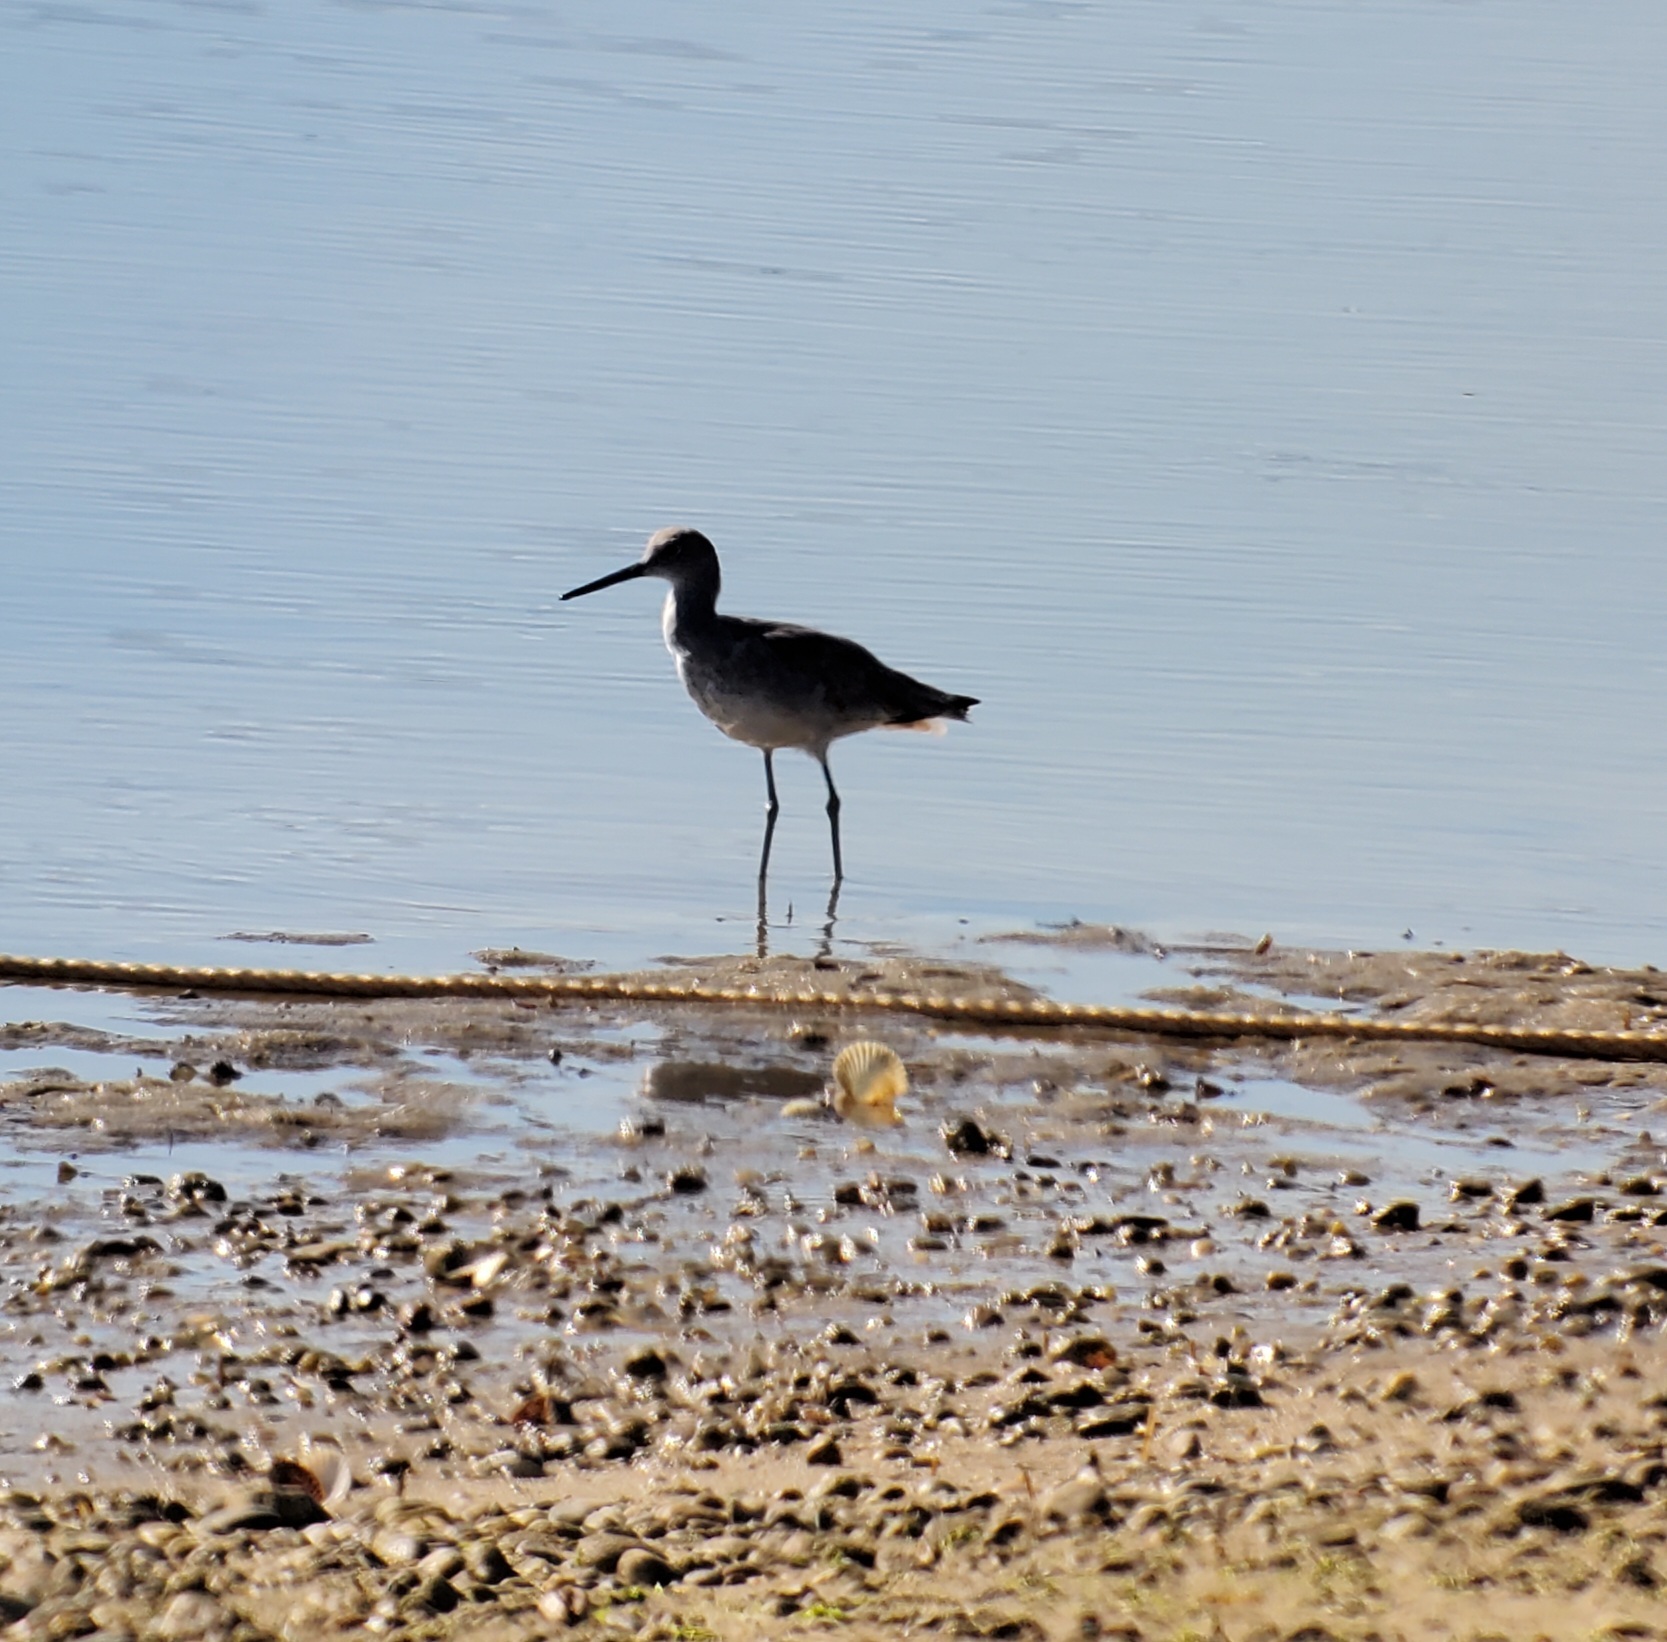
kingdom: Animalia
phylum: Chordata
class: Aves
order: Charadriiformes
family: Scolopacidae
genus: Tringa
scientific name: Tringa semipalmata
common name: Willet
